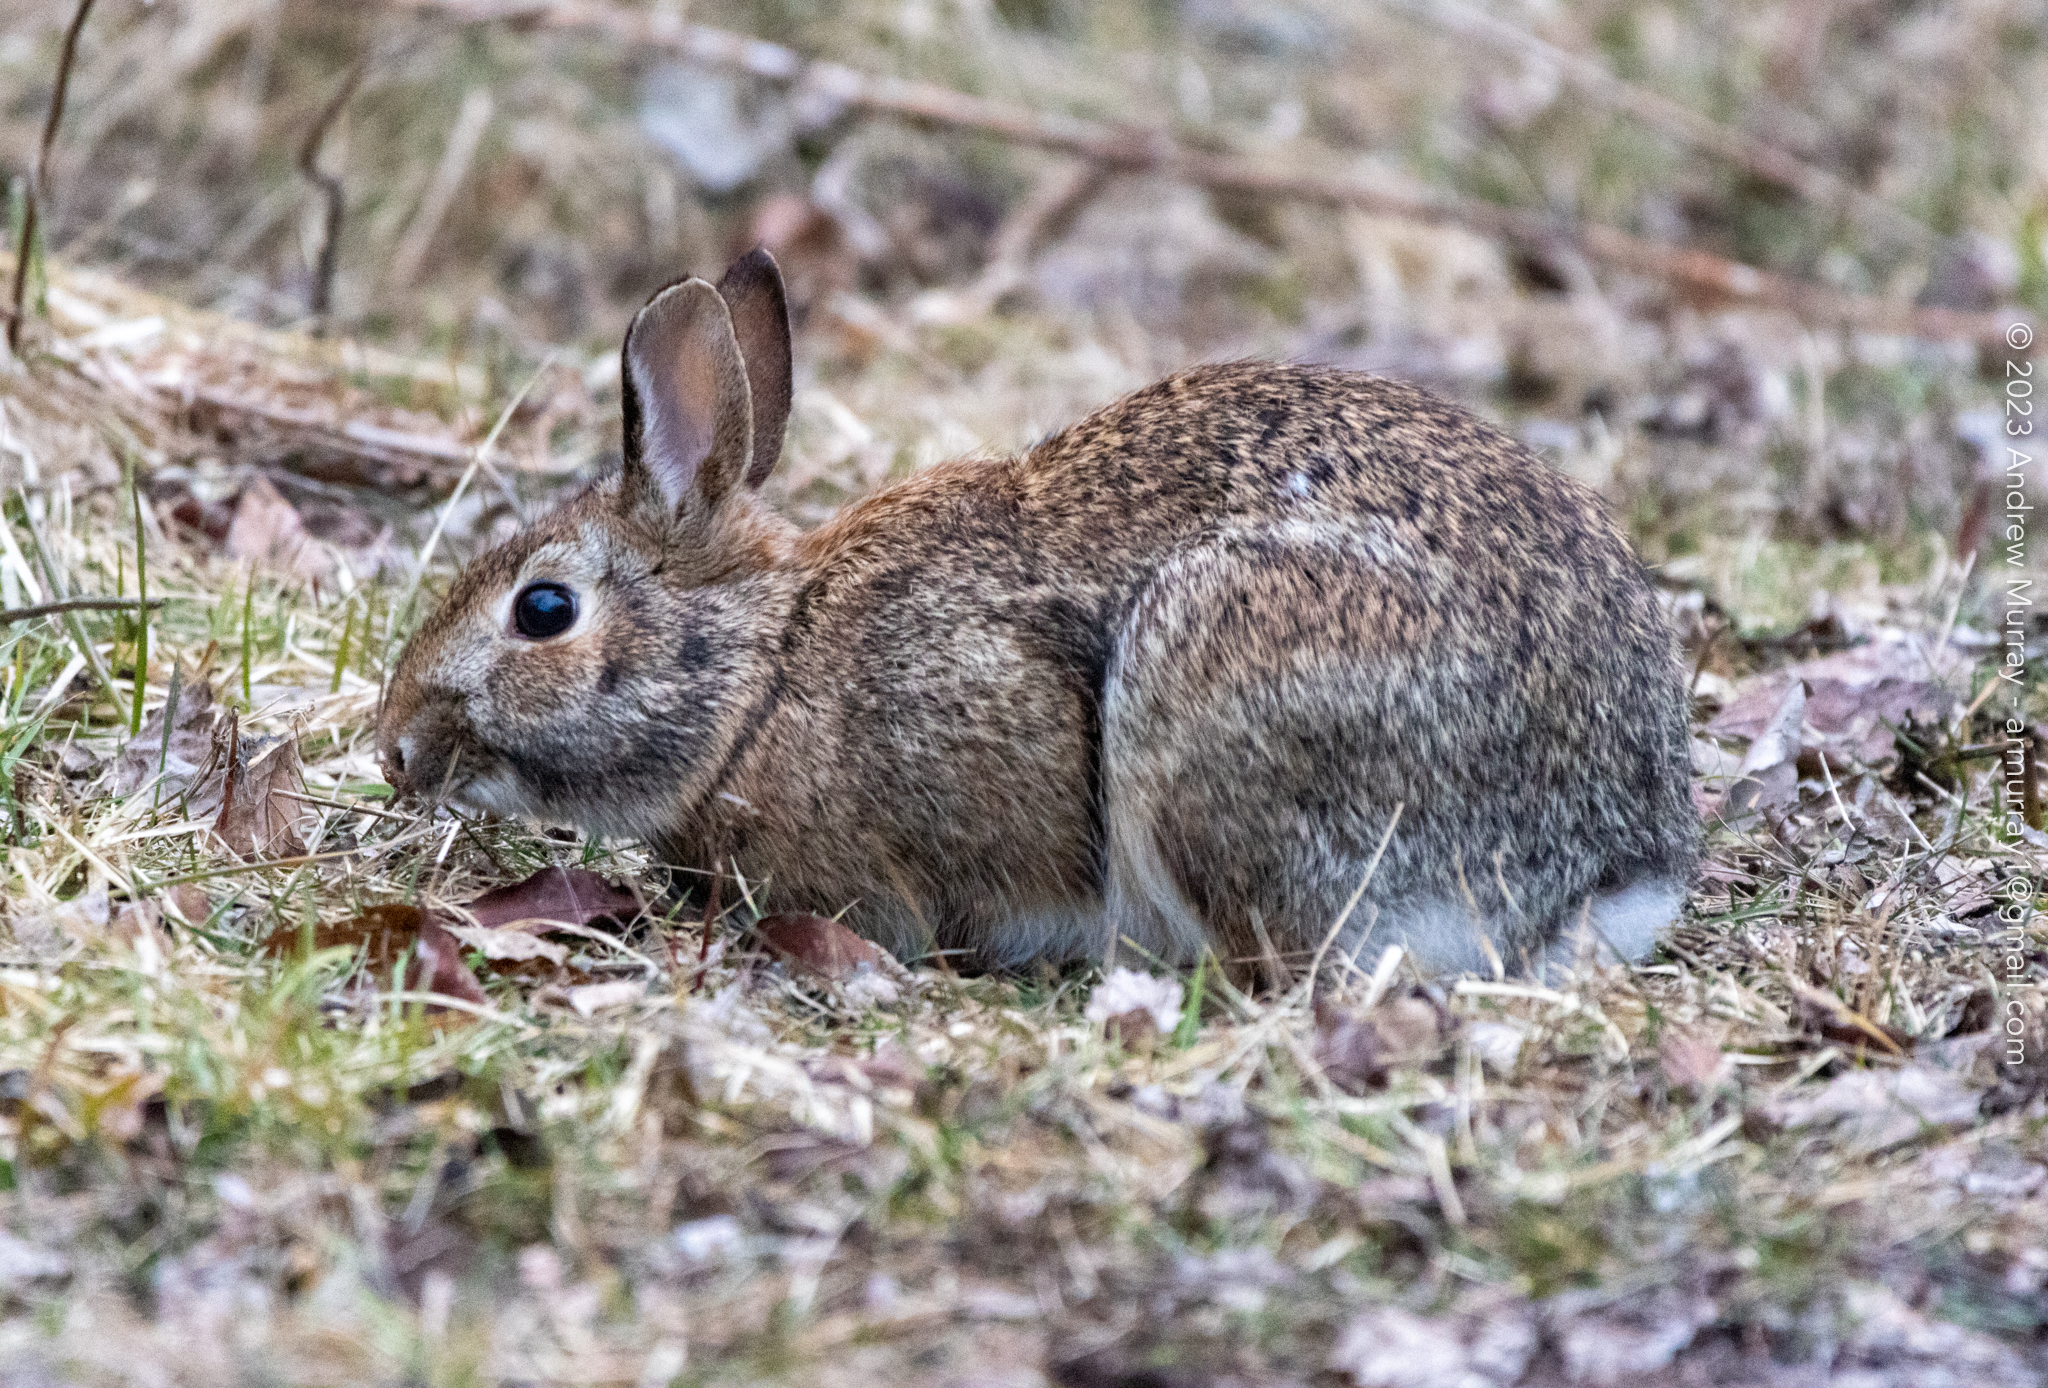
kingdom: Animalia
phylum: Chordata
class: Mammalia
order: Lagomorpha
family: Leporidae
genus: Sylvilagus
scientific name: Sylvilagus floridanus
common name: Eastern cottontail
